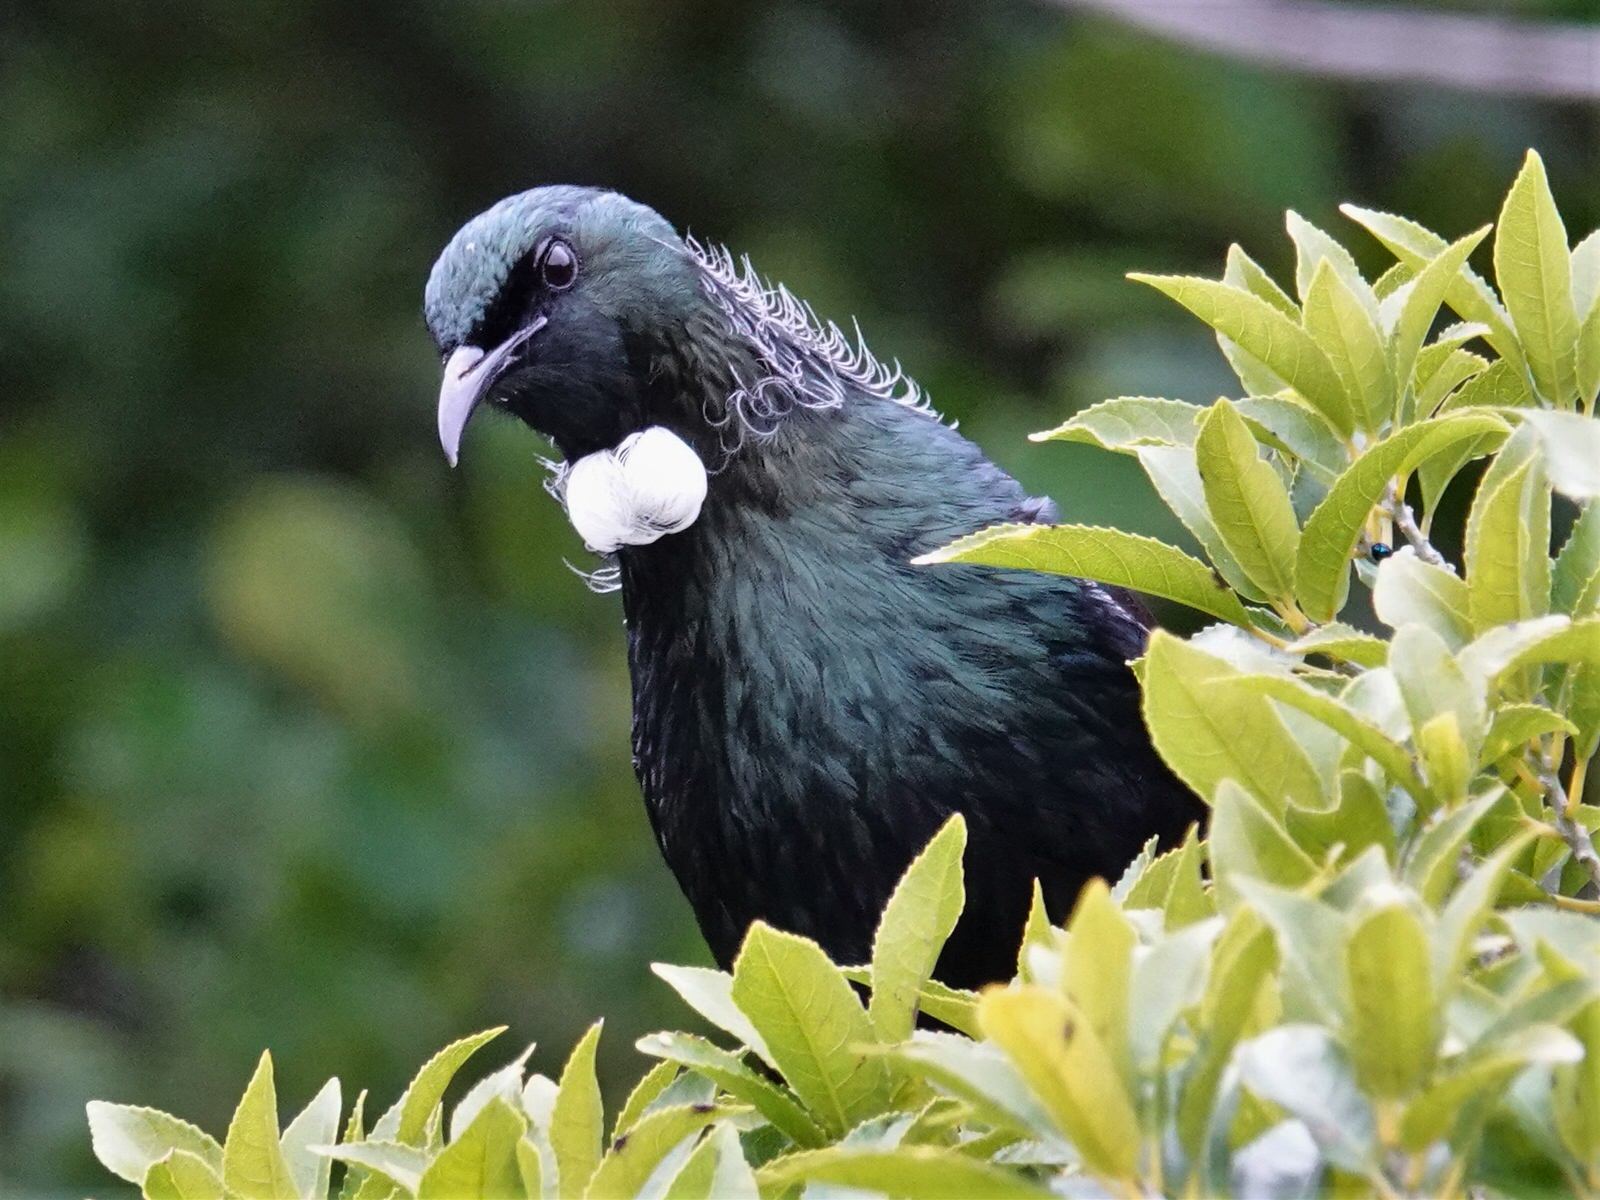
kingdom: Animalia
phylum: Chordata
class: Aves
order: Passeriformes
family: Meliphagidae
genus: Prosthemadera
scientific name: Prosthemadera novaeseelandiae
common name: Tui
